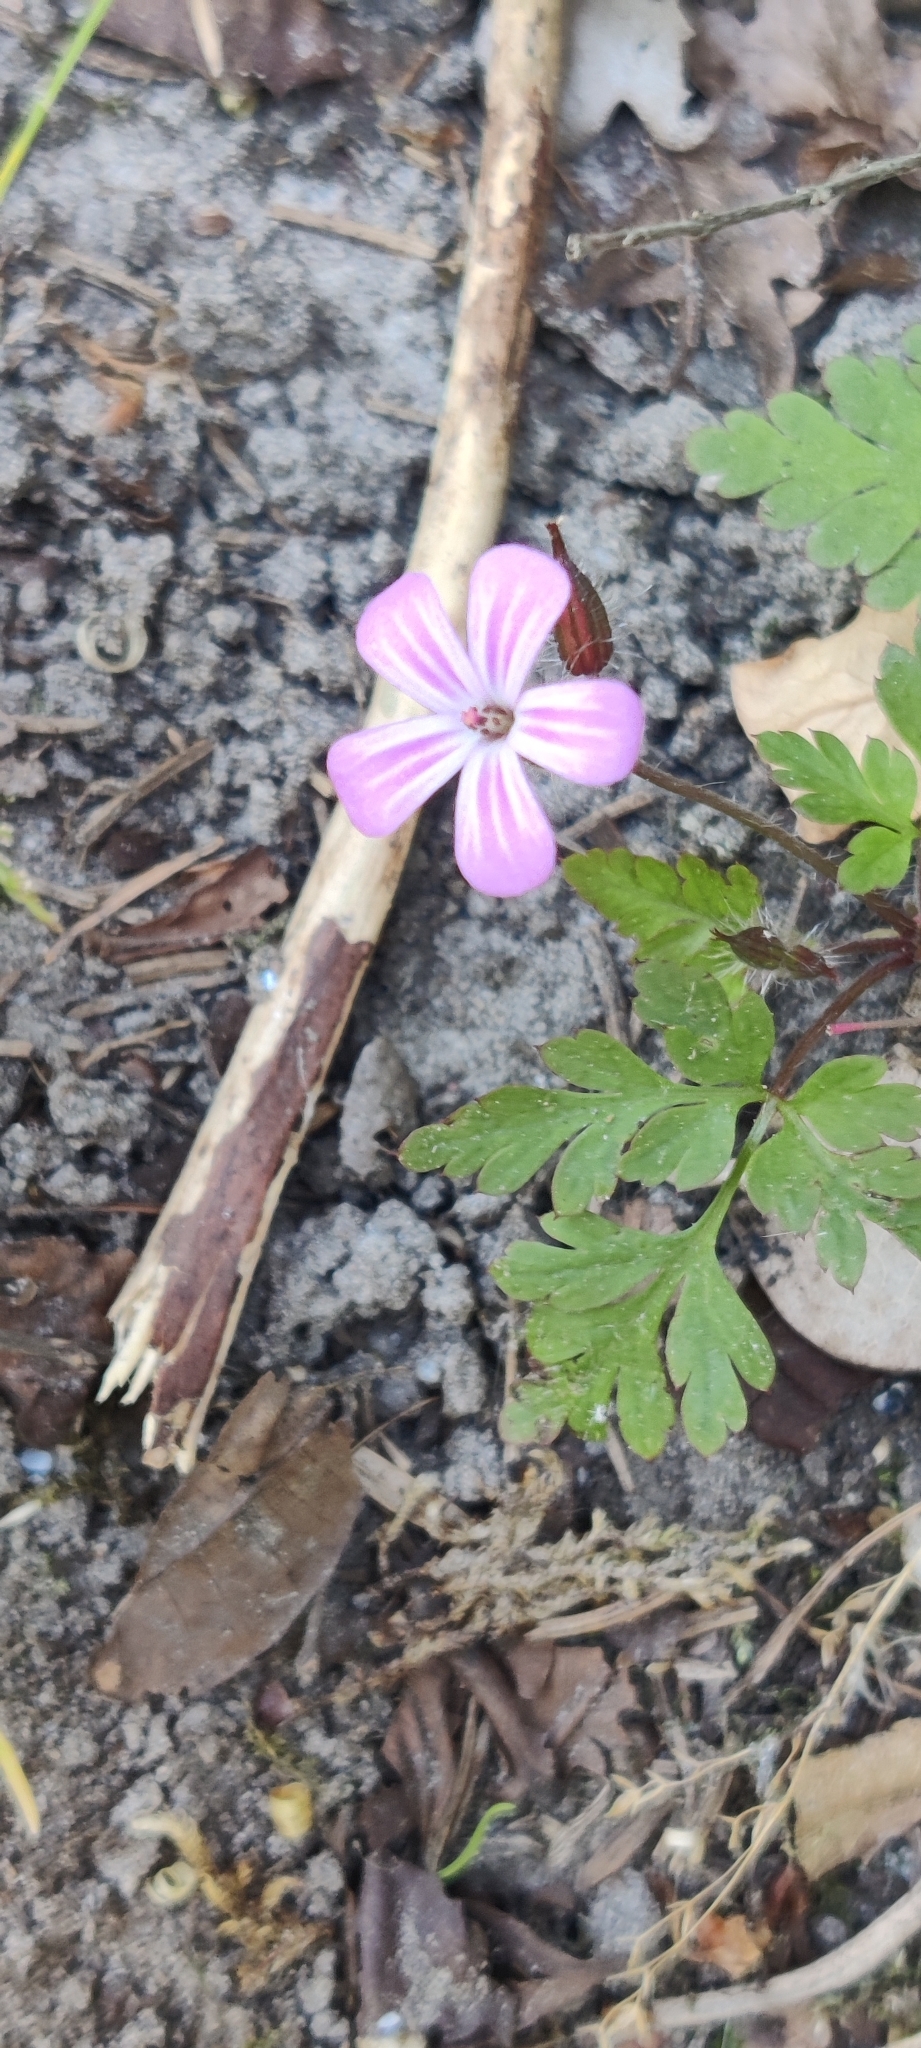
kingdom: Plantae
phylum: Tracheophyta
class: Magnoliopsida
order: Geraniales
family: Geraniaceae
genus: Geranium
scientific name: Geranium robertianum
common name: Herb-robert
